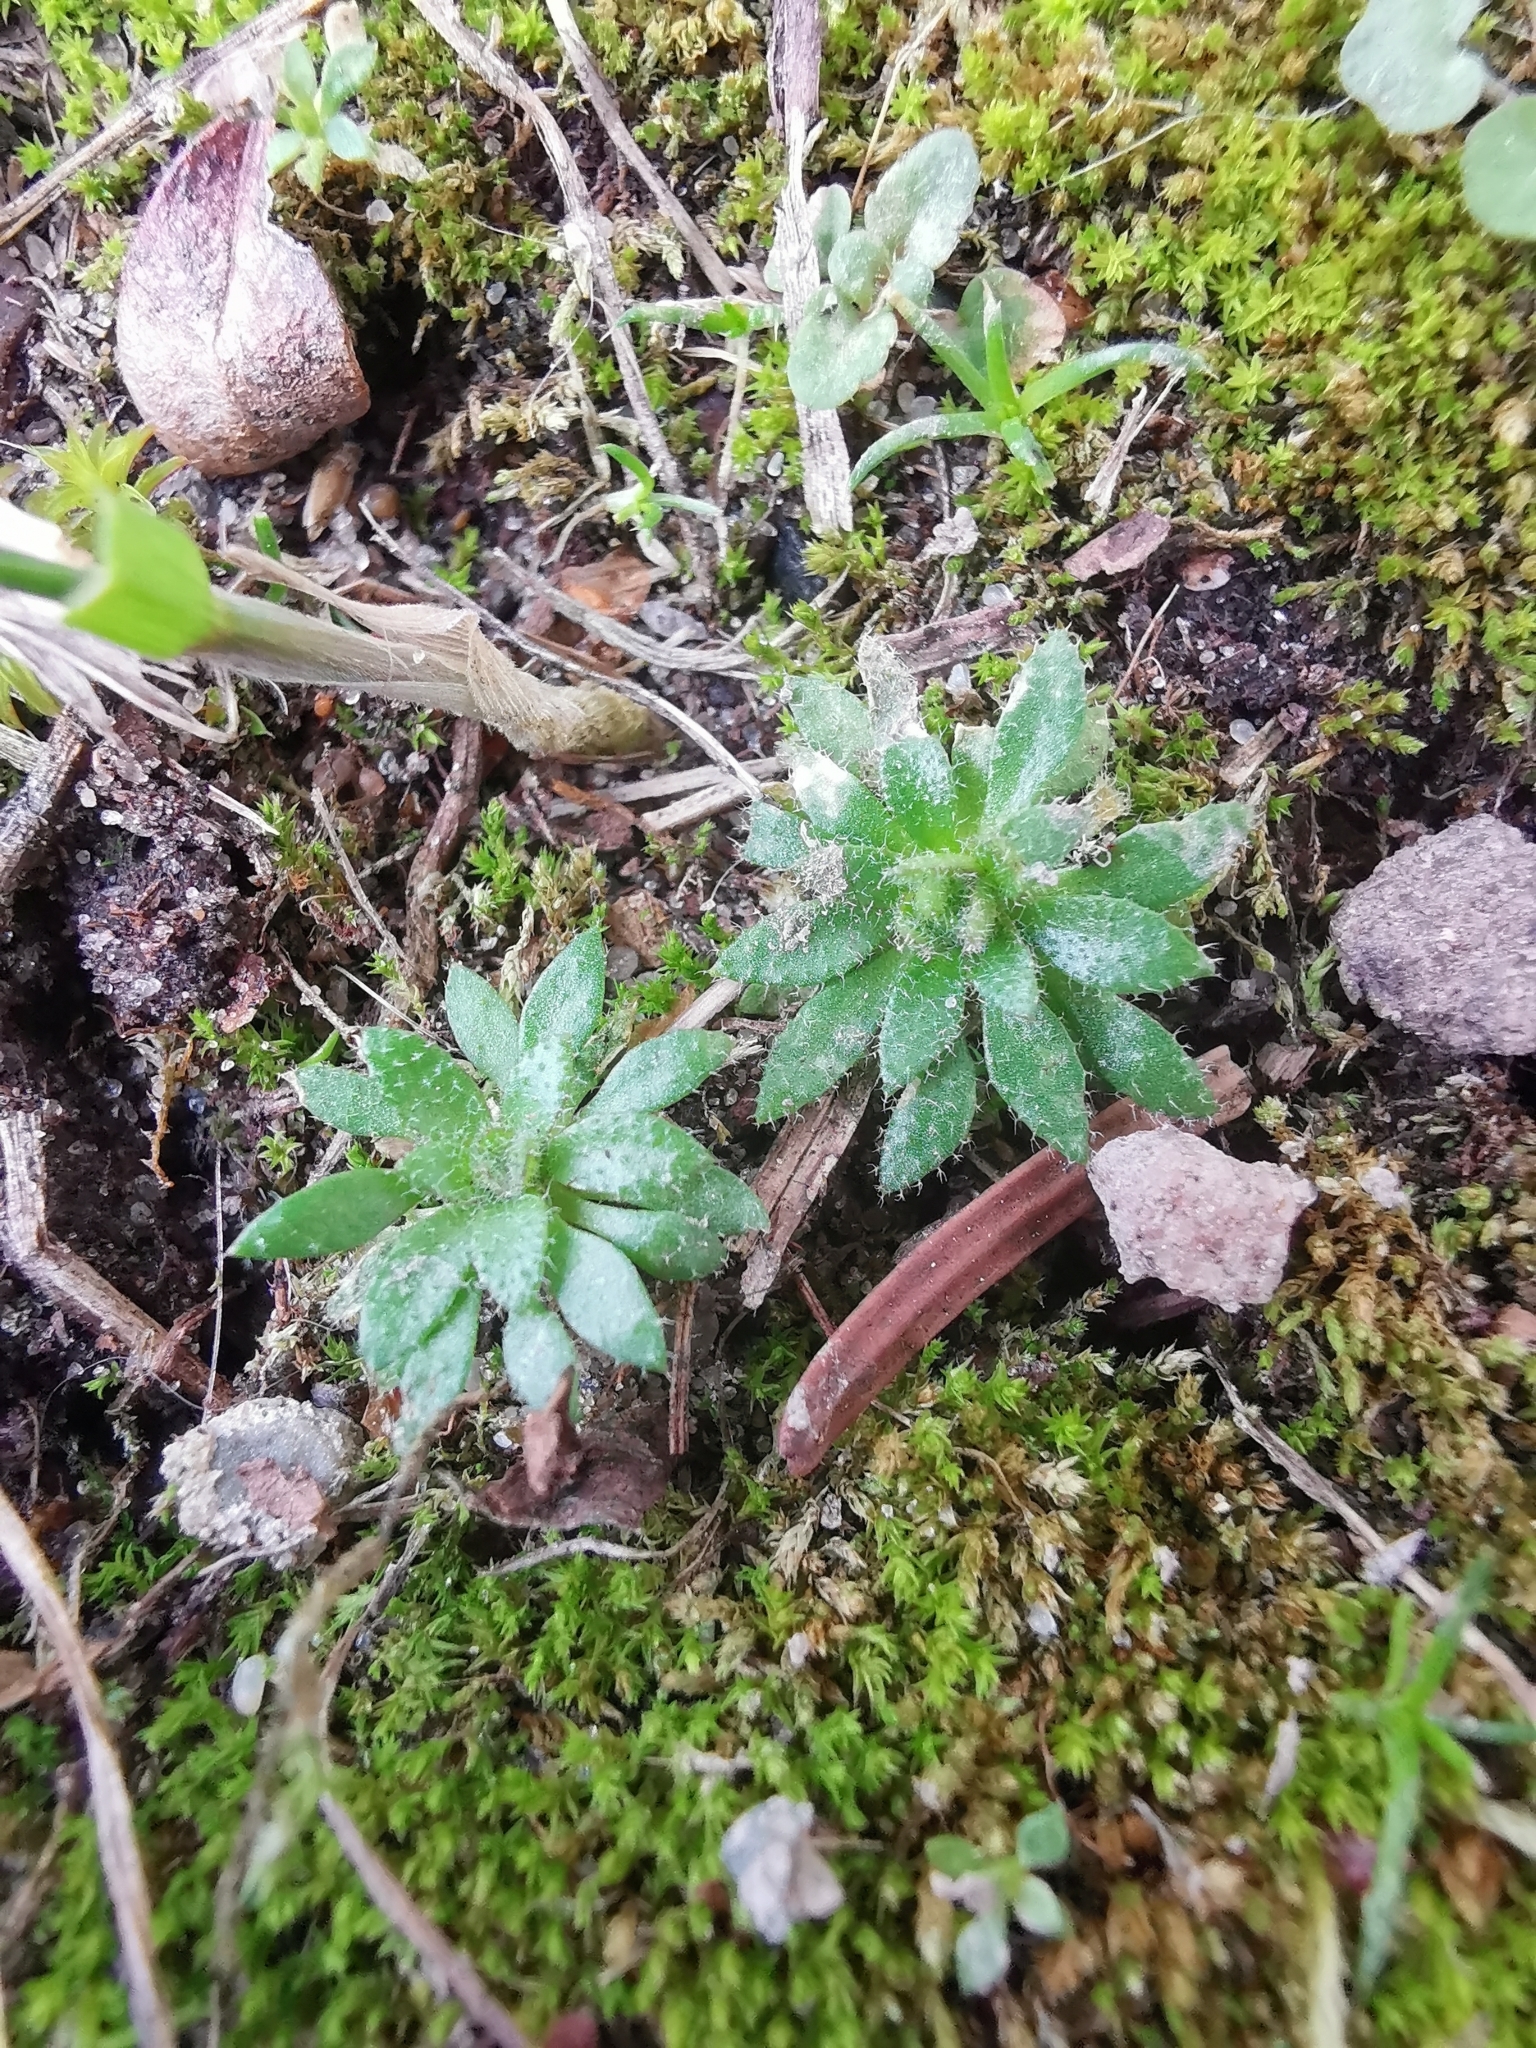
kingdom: Plantae
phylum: Tracheophyta
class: Magnoliopsida
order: Brassicales
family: Brassicaceae
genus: Draba
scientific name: Draba verna
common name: Spring draba
